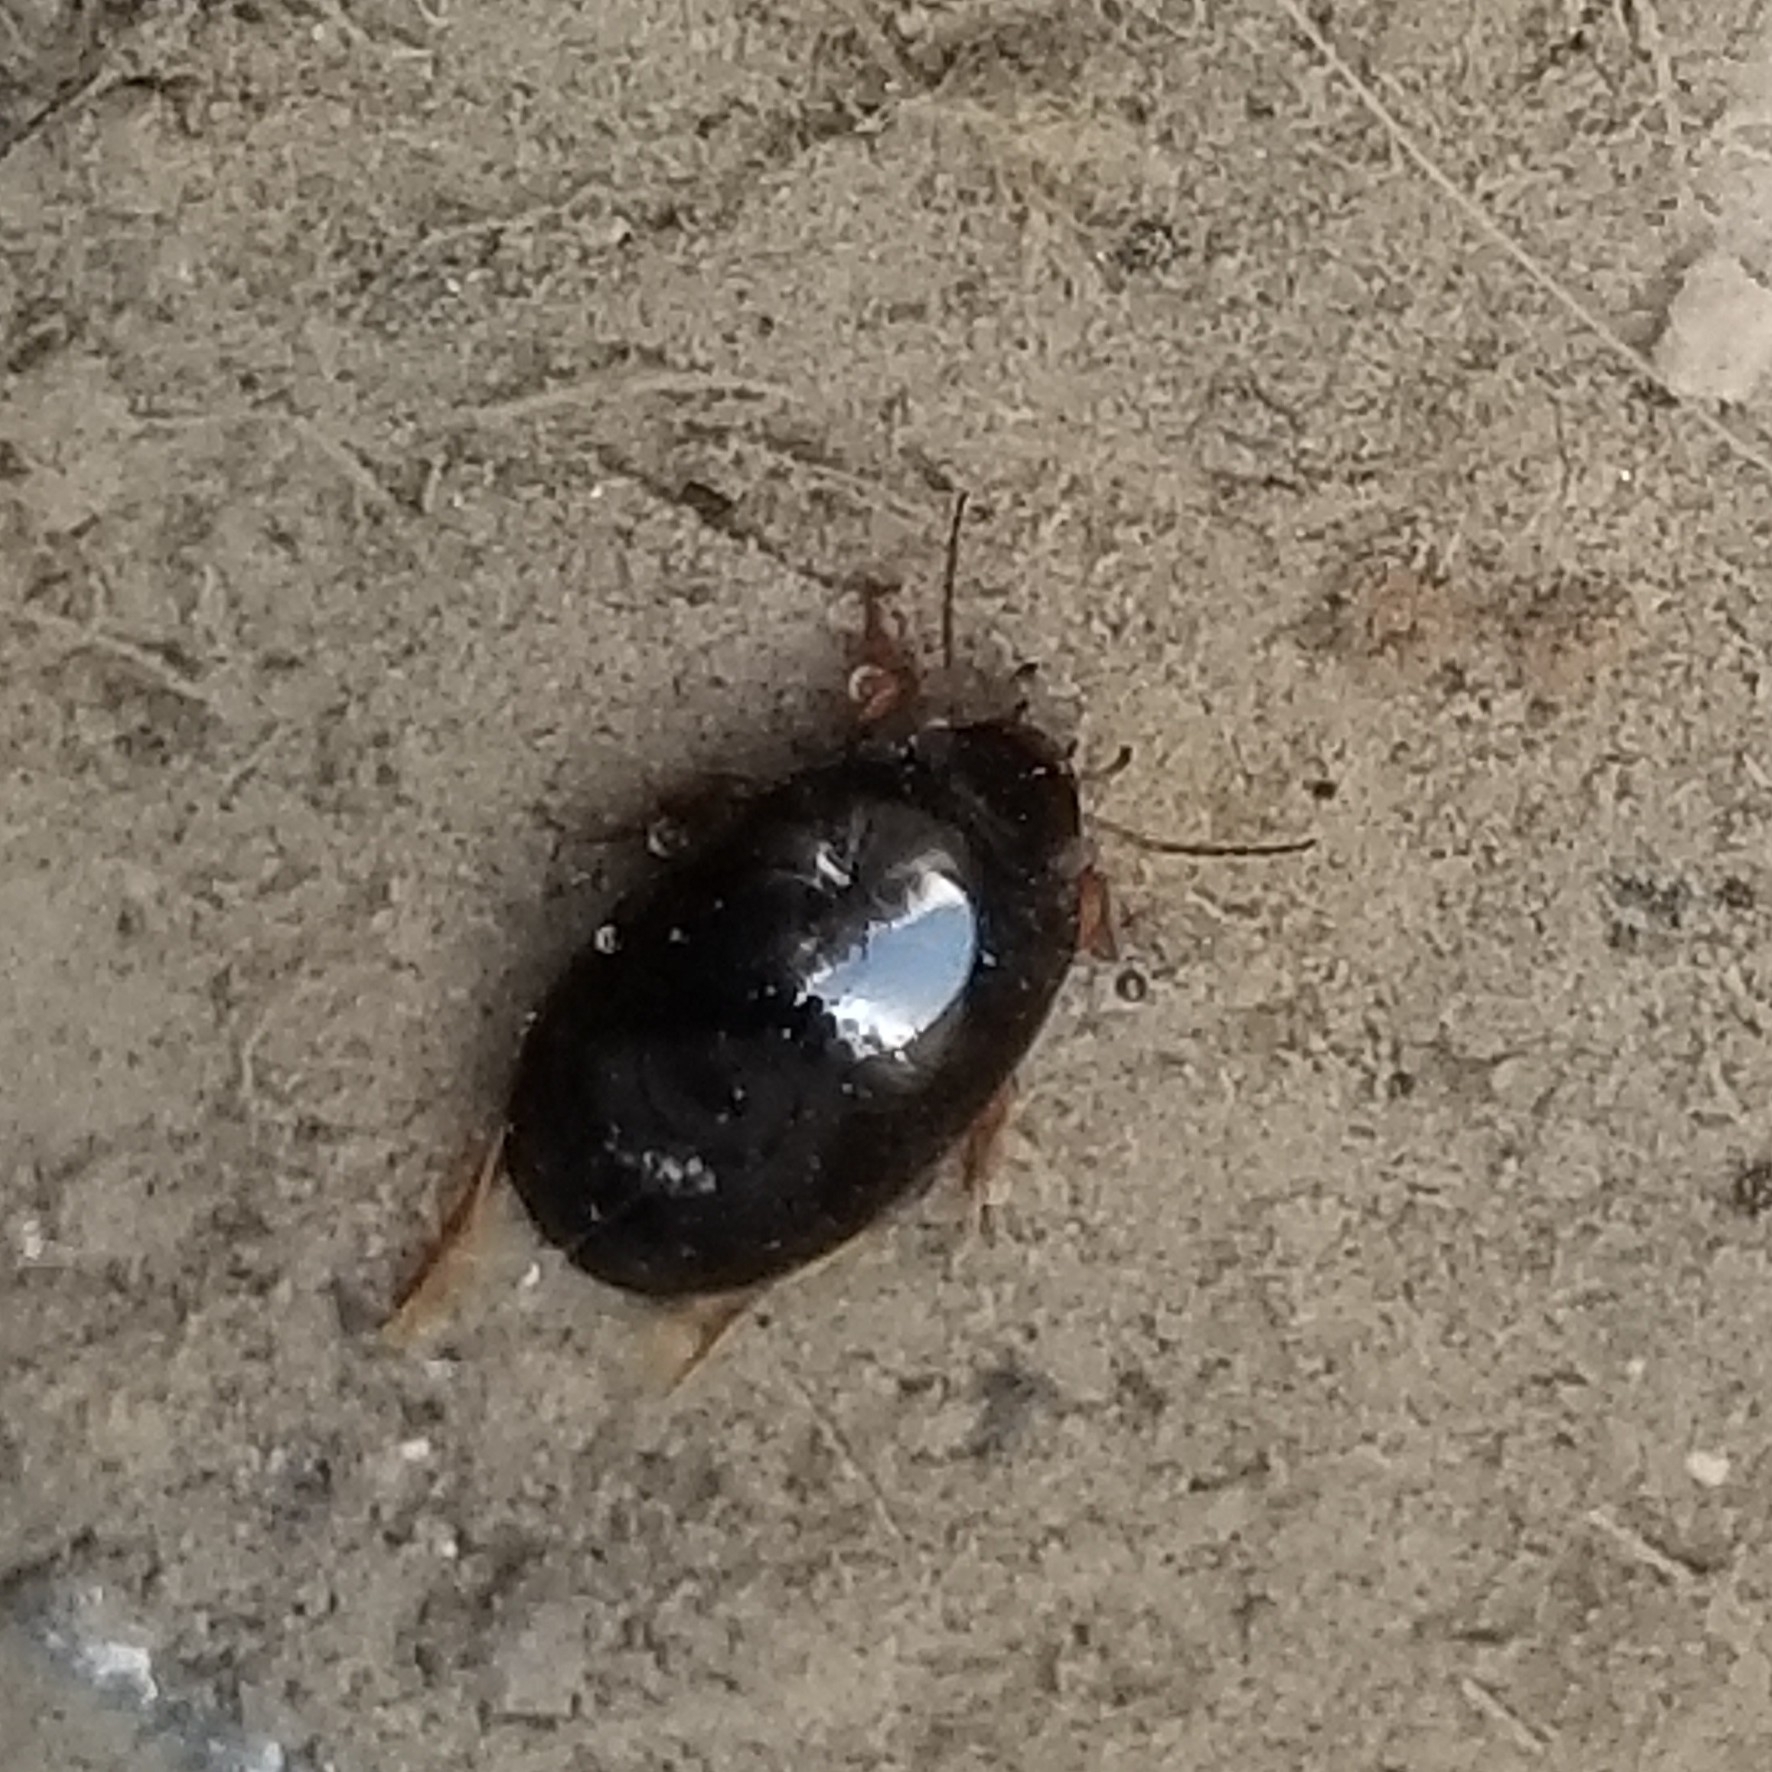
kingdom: Animalia
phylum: Arthropoda
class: Insecta
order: Coleoptera
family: Dytiscidae
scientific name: Dytiscidae
